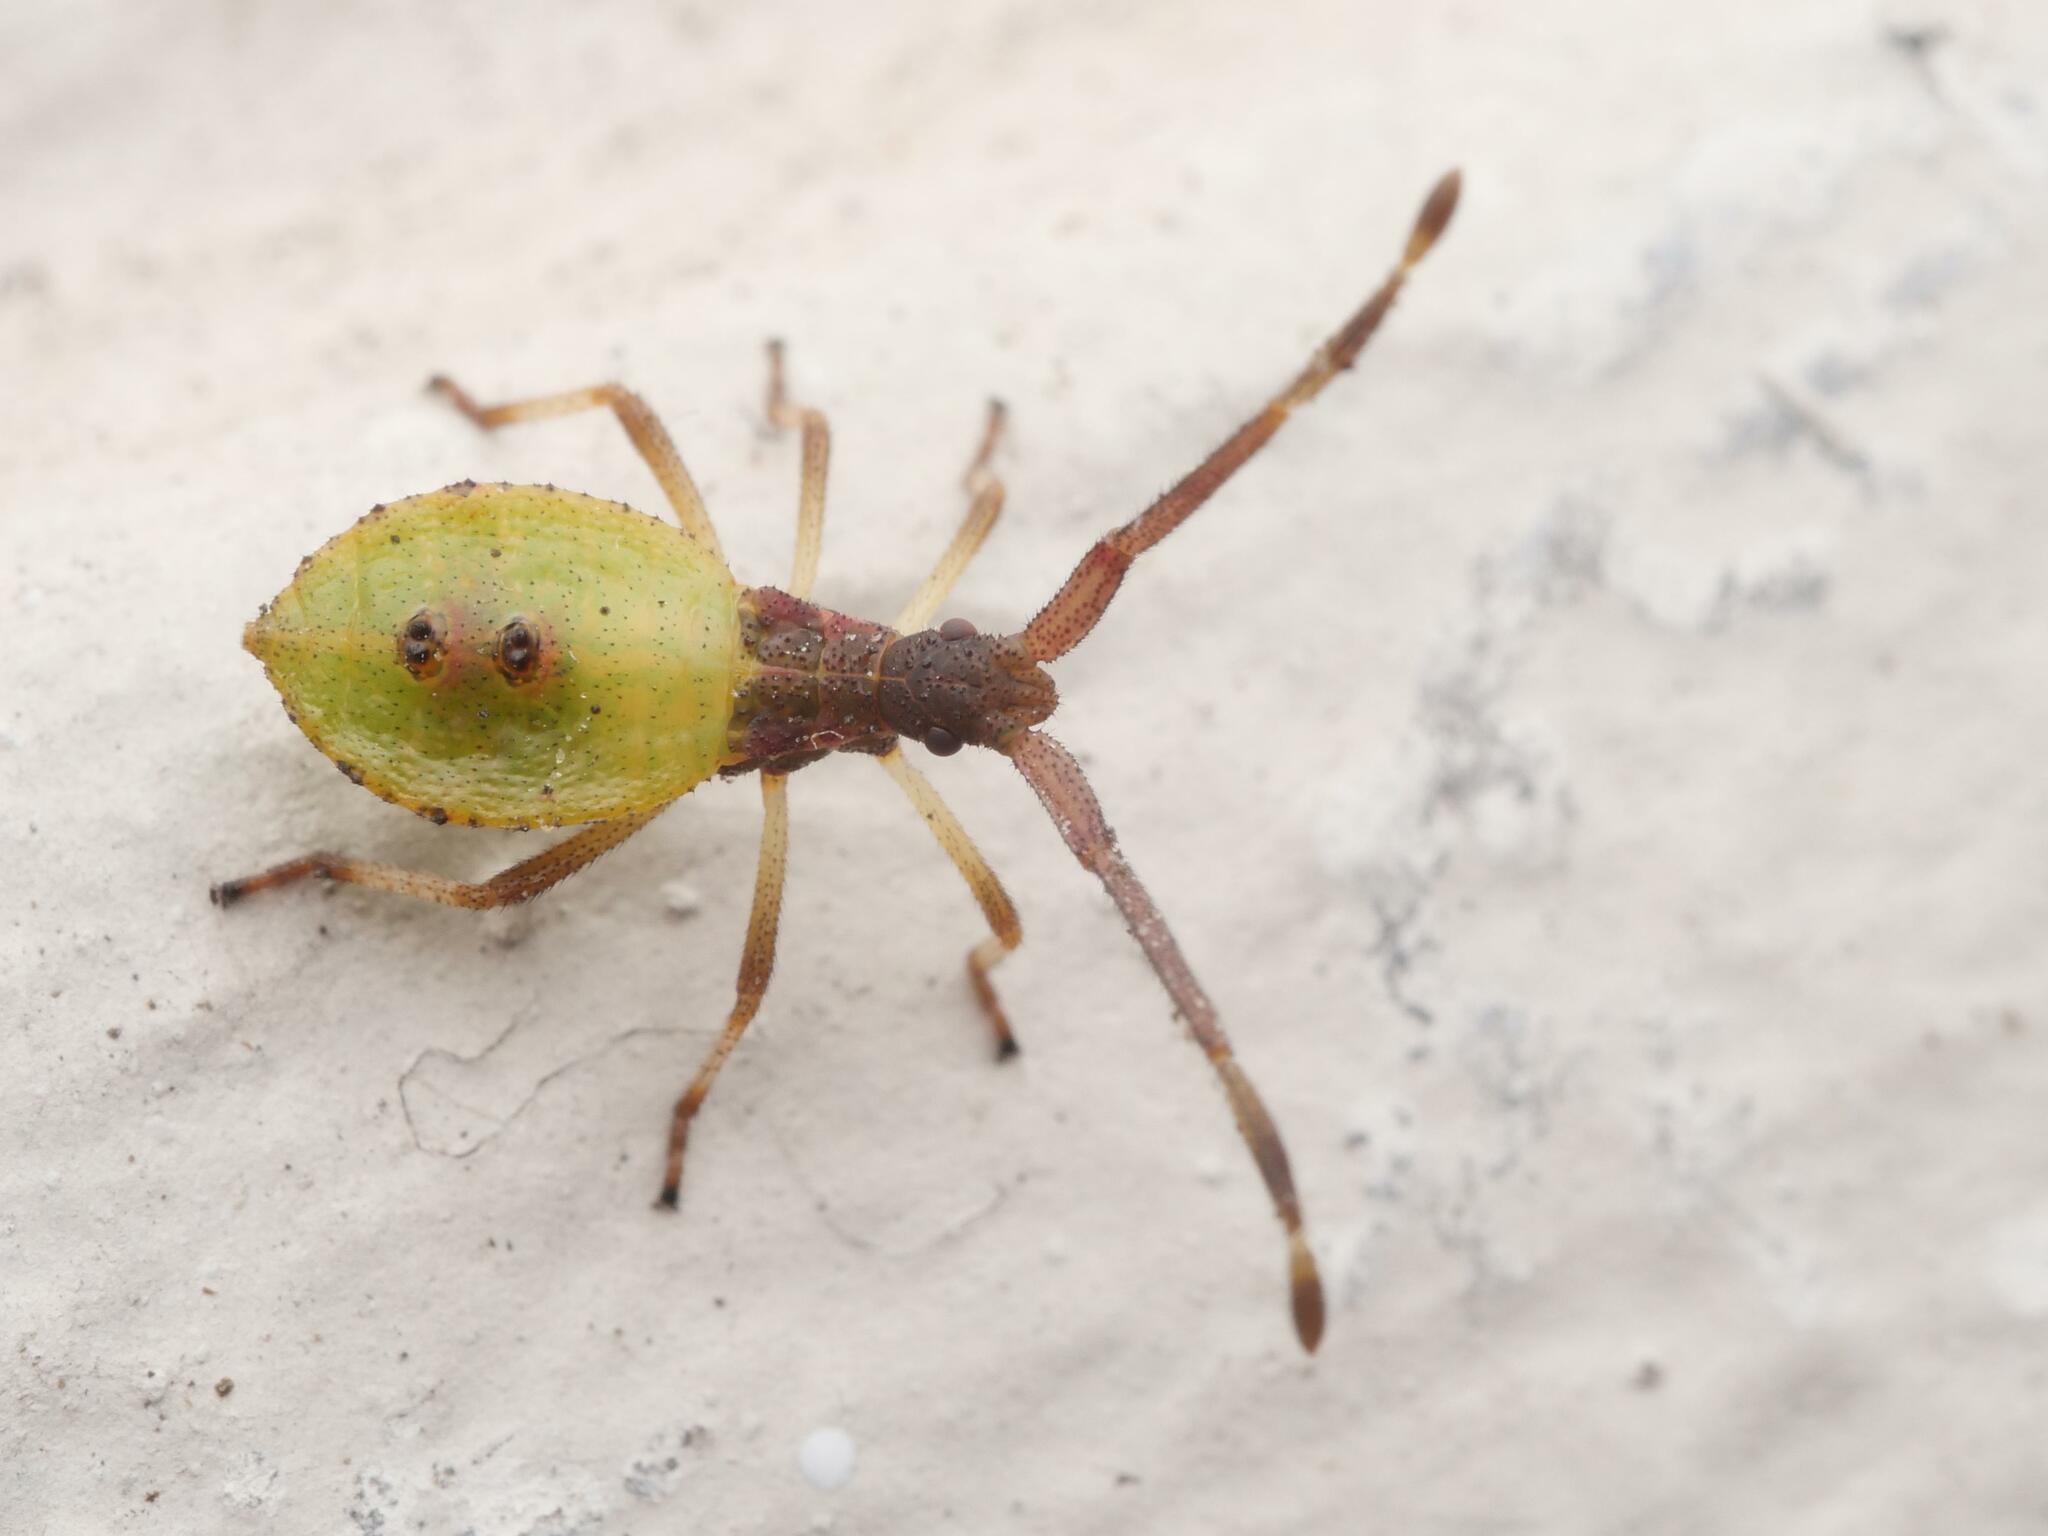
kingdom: Animalia
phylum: Arthropoda
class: Insecta
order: Hemiptera
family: Coreidae
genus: Gonocerus
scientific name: Gonocerus acuteangulatus
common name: Box bug
